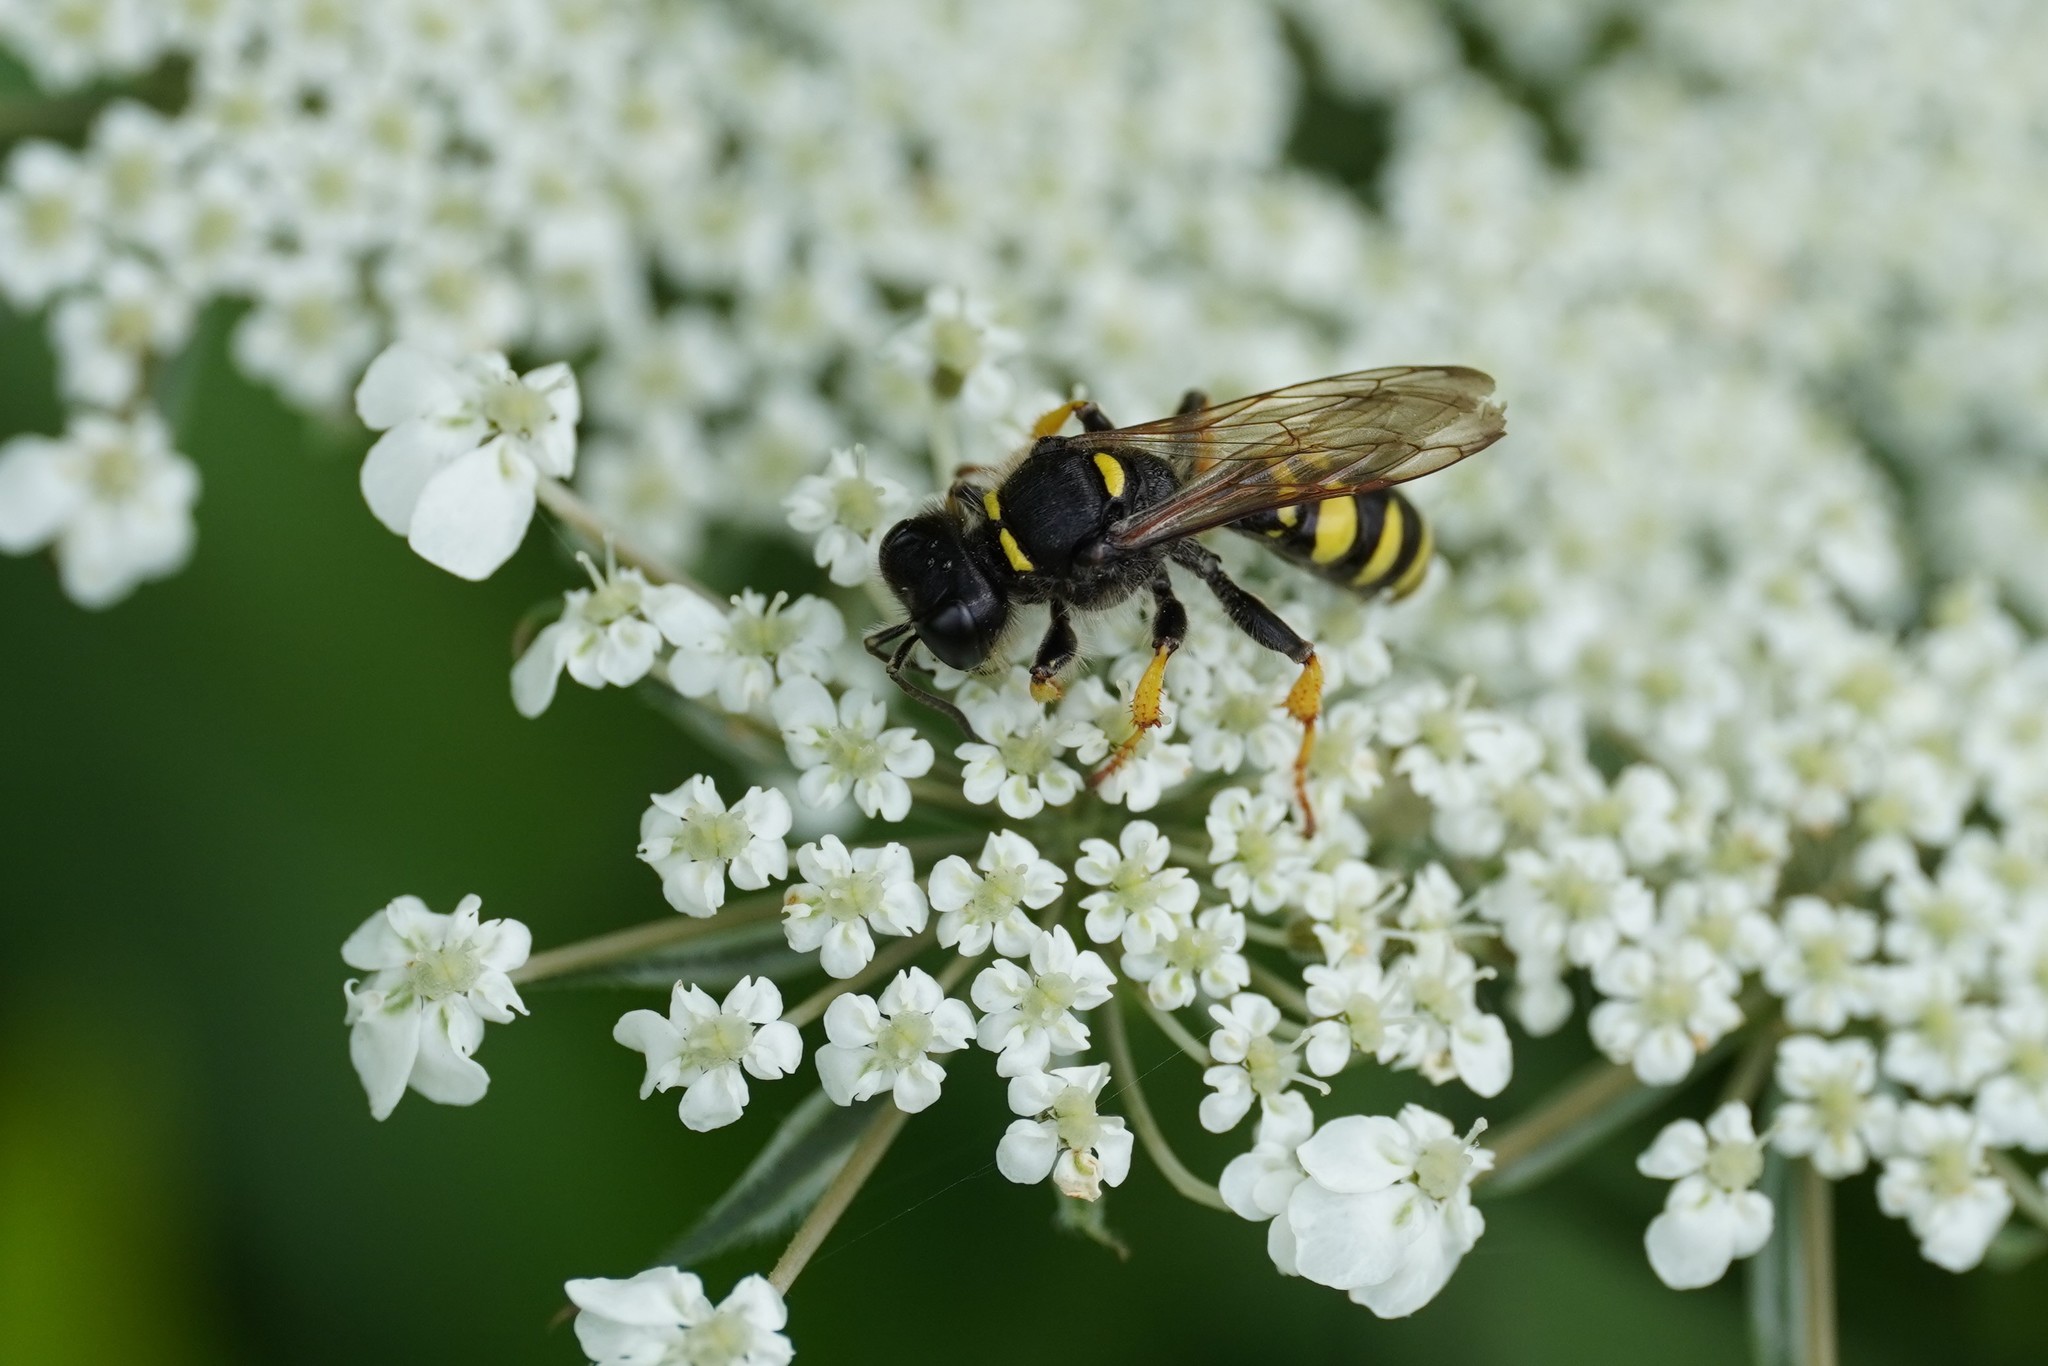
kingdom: Animalia
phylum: Arthropoda
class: Insecta
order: Hymenoptera
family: Crabronidae
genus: Crabro
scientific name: Crabro cribrarius
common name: Slender bodied digger wasp
